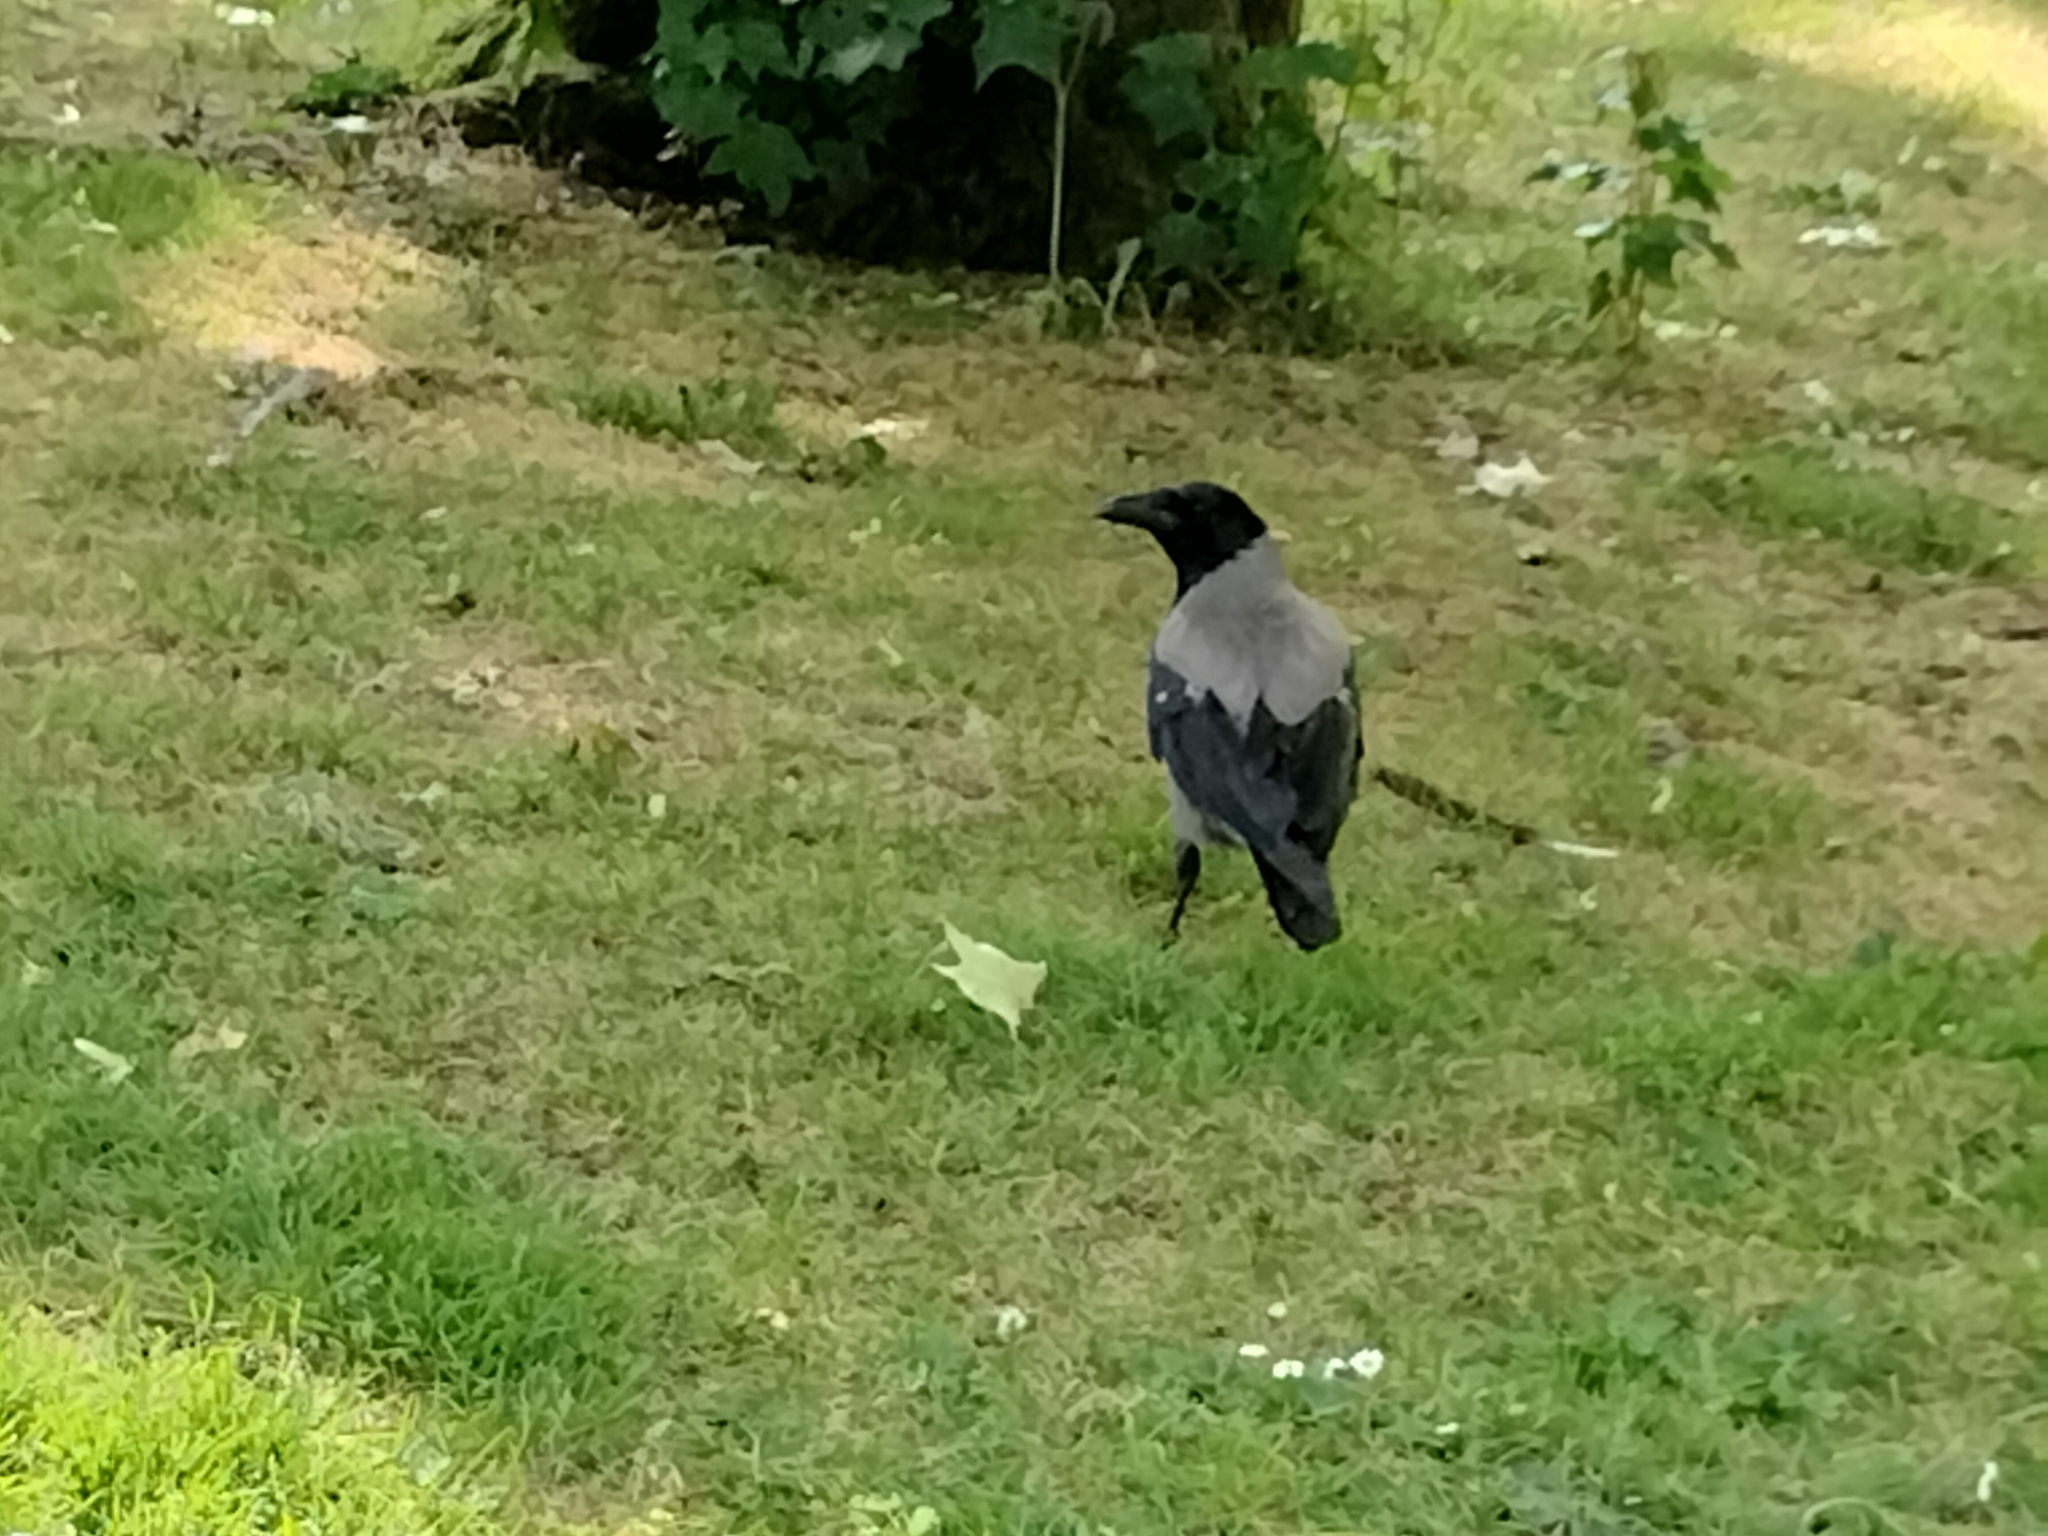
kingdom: Animalia
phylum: Chordata
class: Aves
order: Passeriformes
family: Corvidae
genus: Corvus
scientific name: Corvus cornix
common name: Hooded crow
